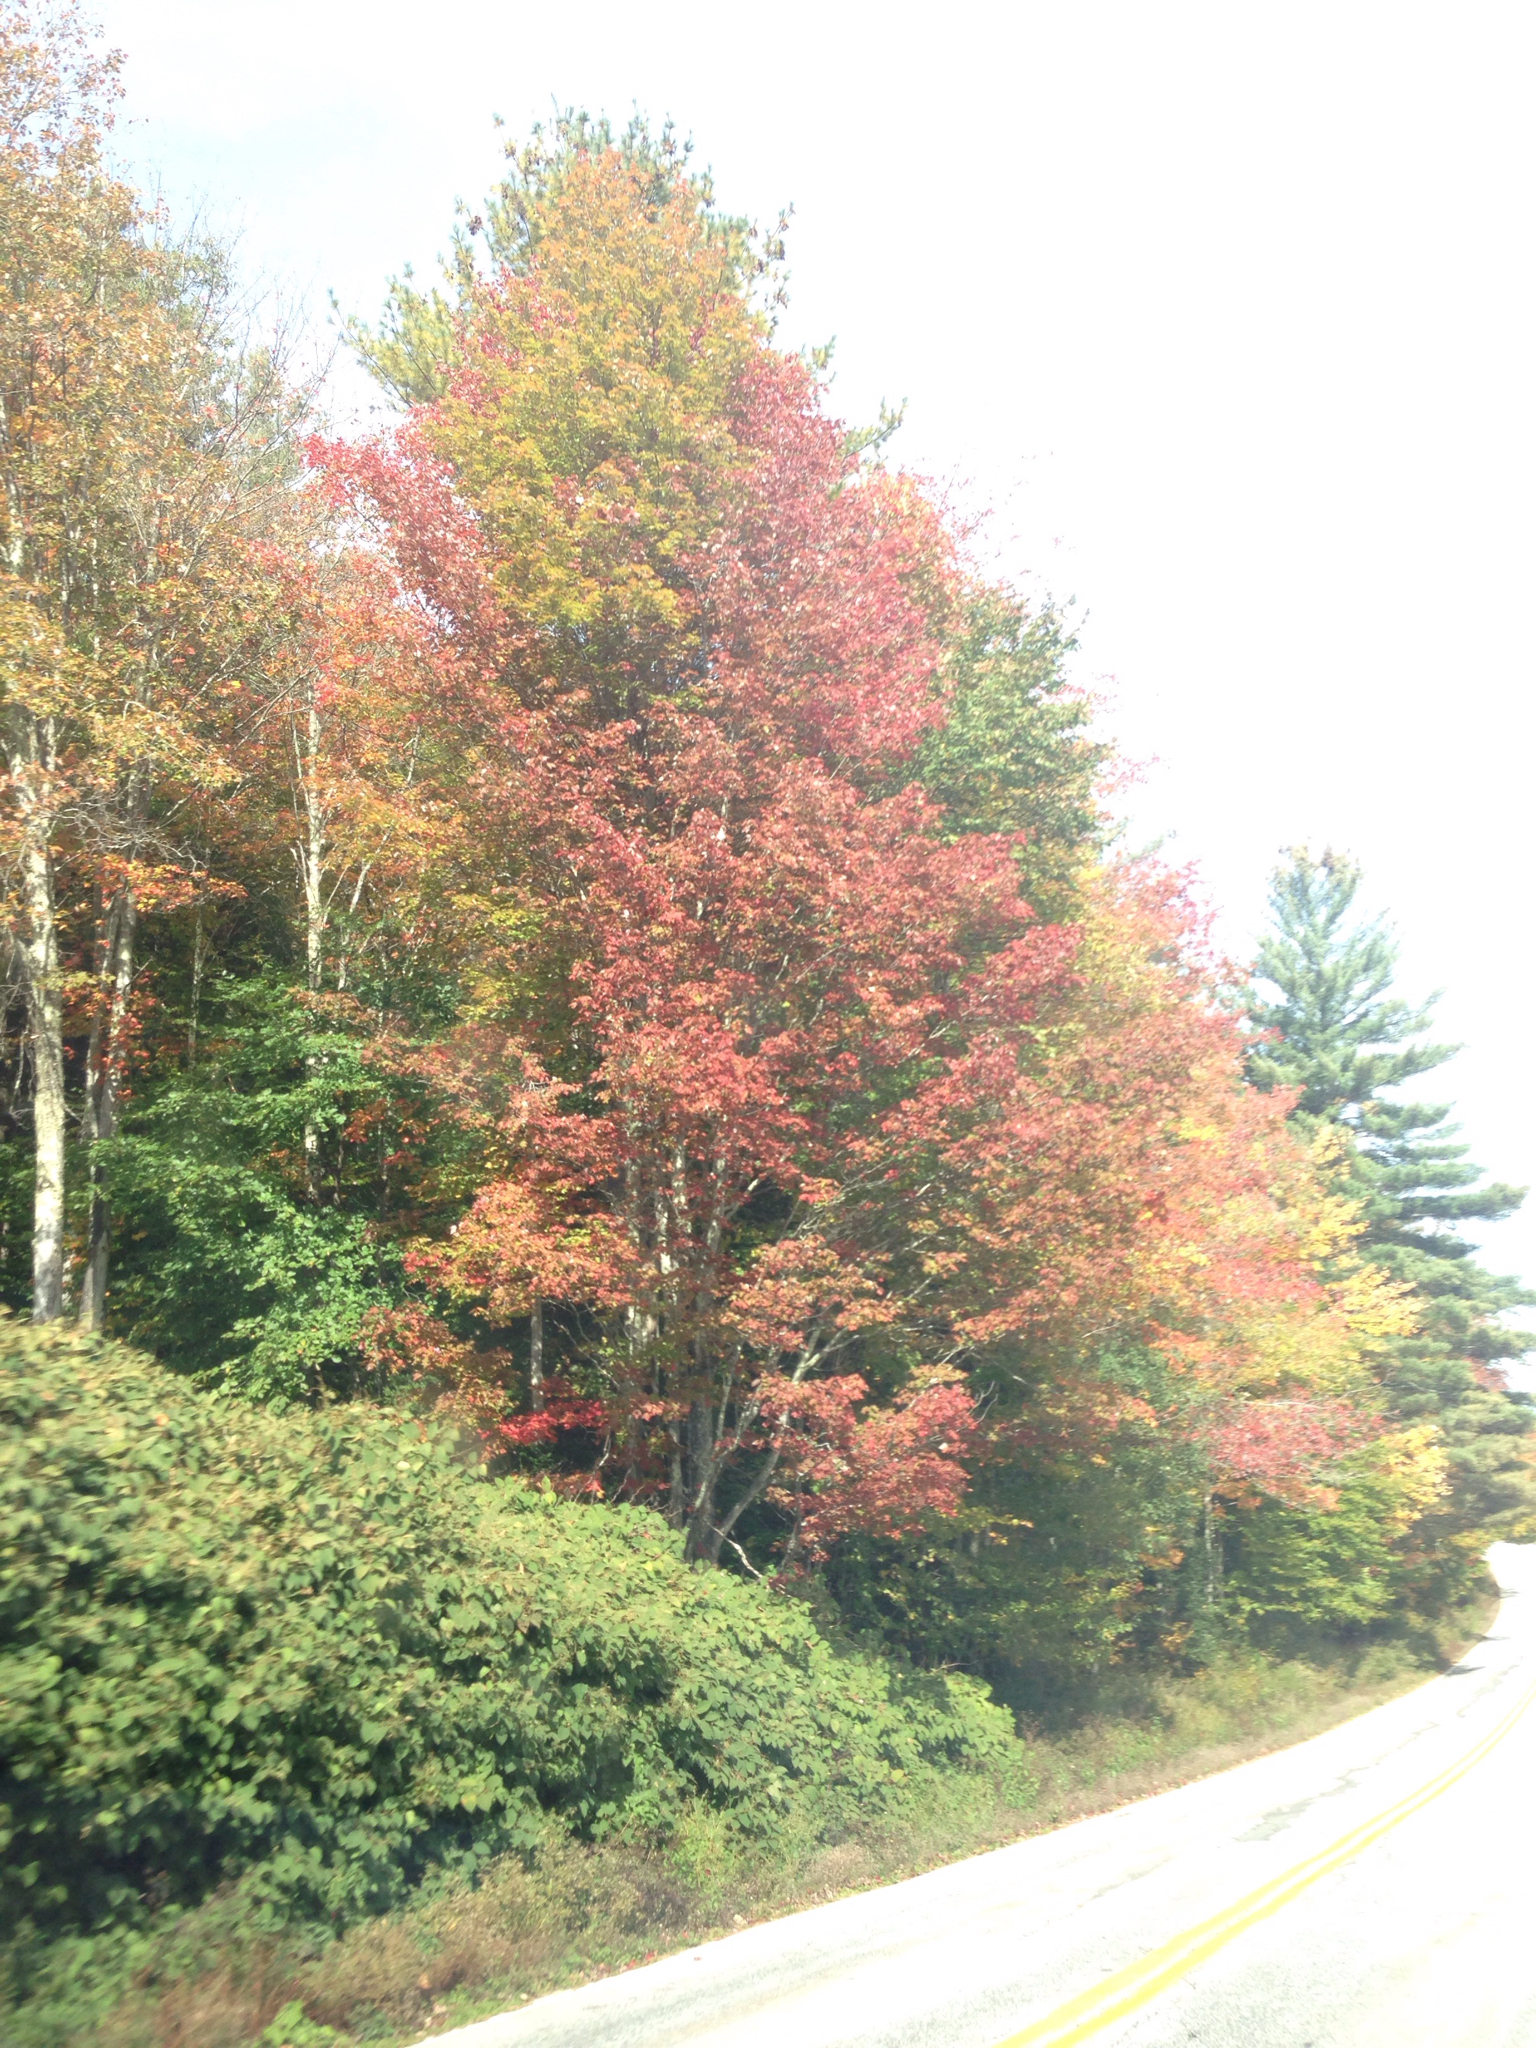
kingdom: Plantae
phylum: Tracheophyta
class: Magnoliopsida
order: Caryophyllales
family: Polygonaceae
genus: Reynoutria
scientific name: Reynoutria japonica
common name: Japanese knotweed
